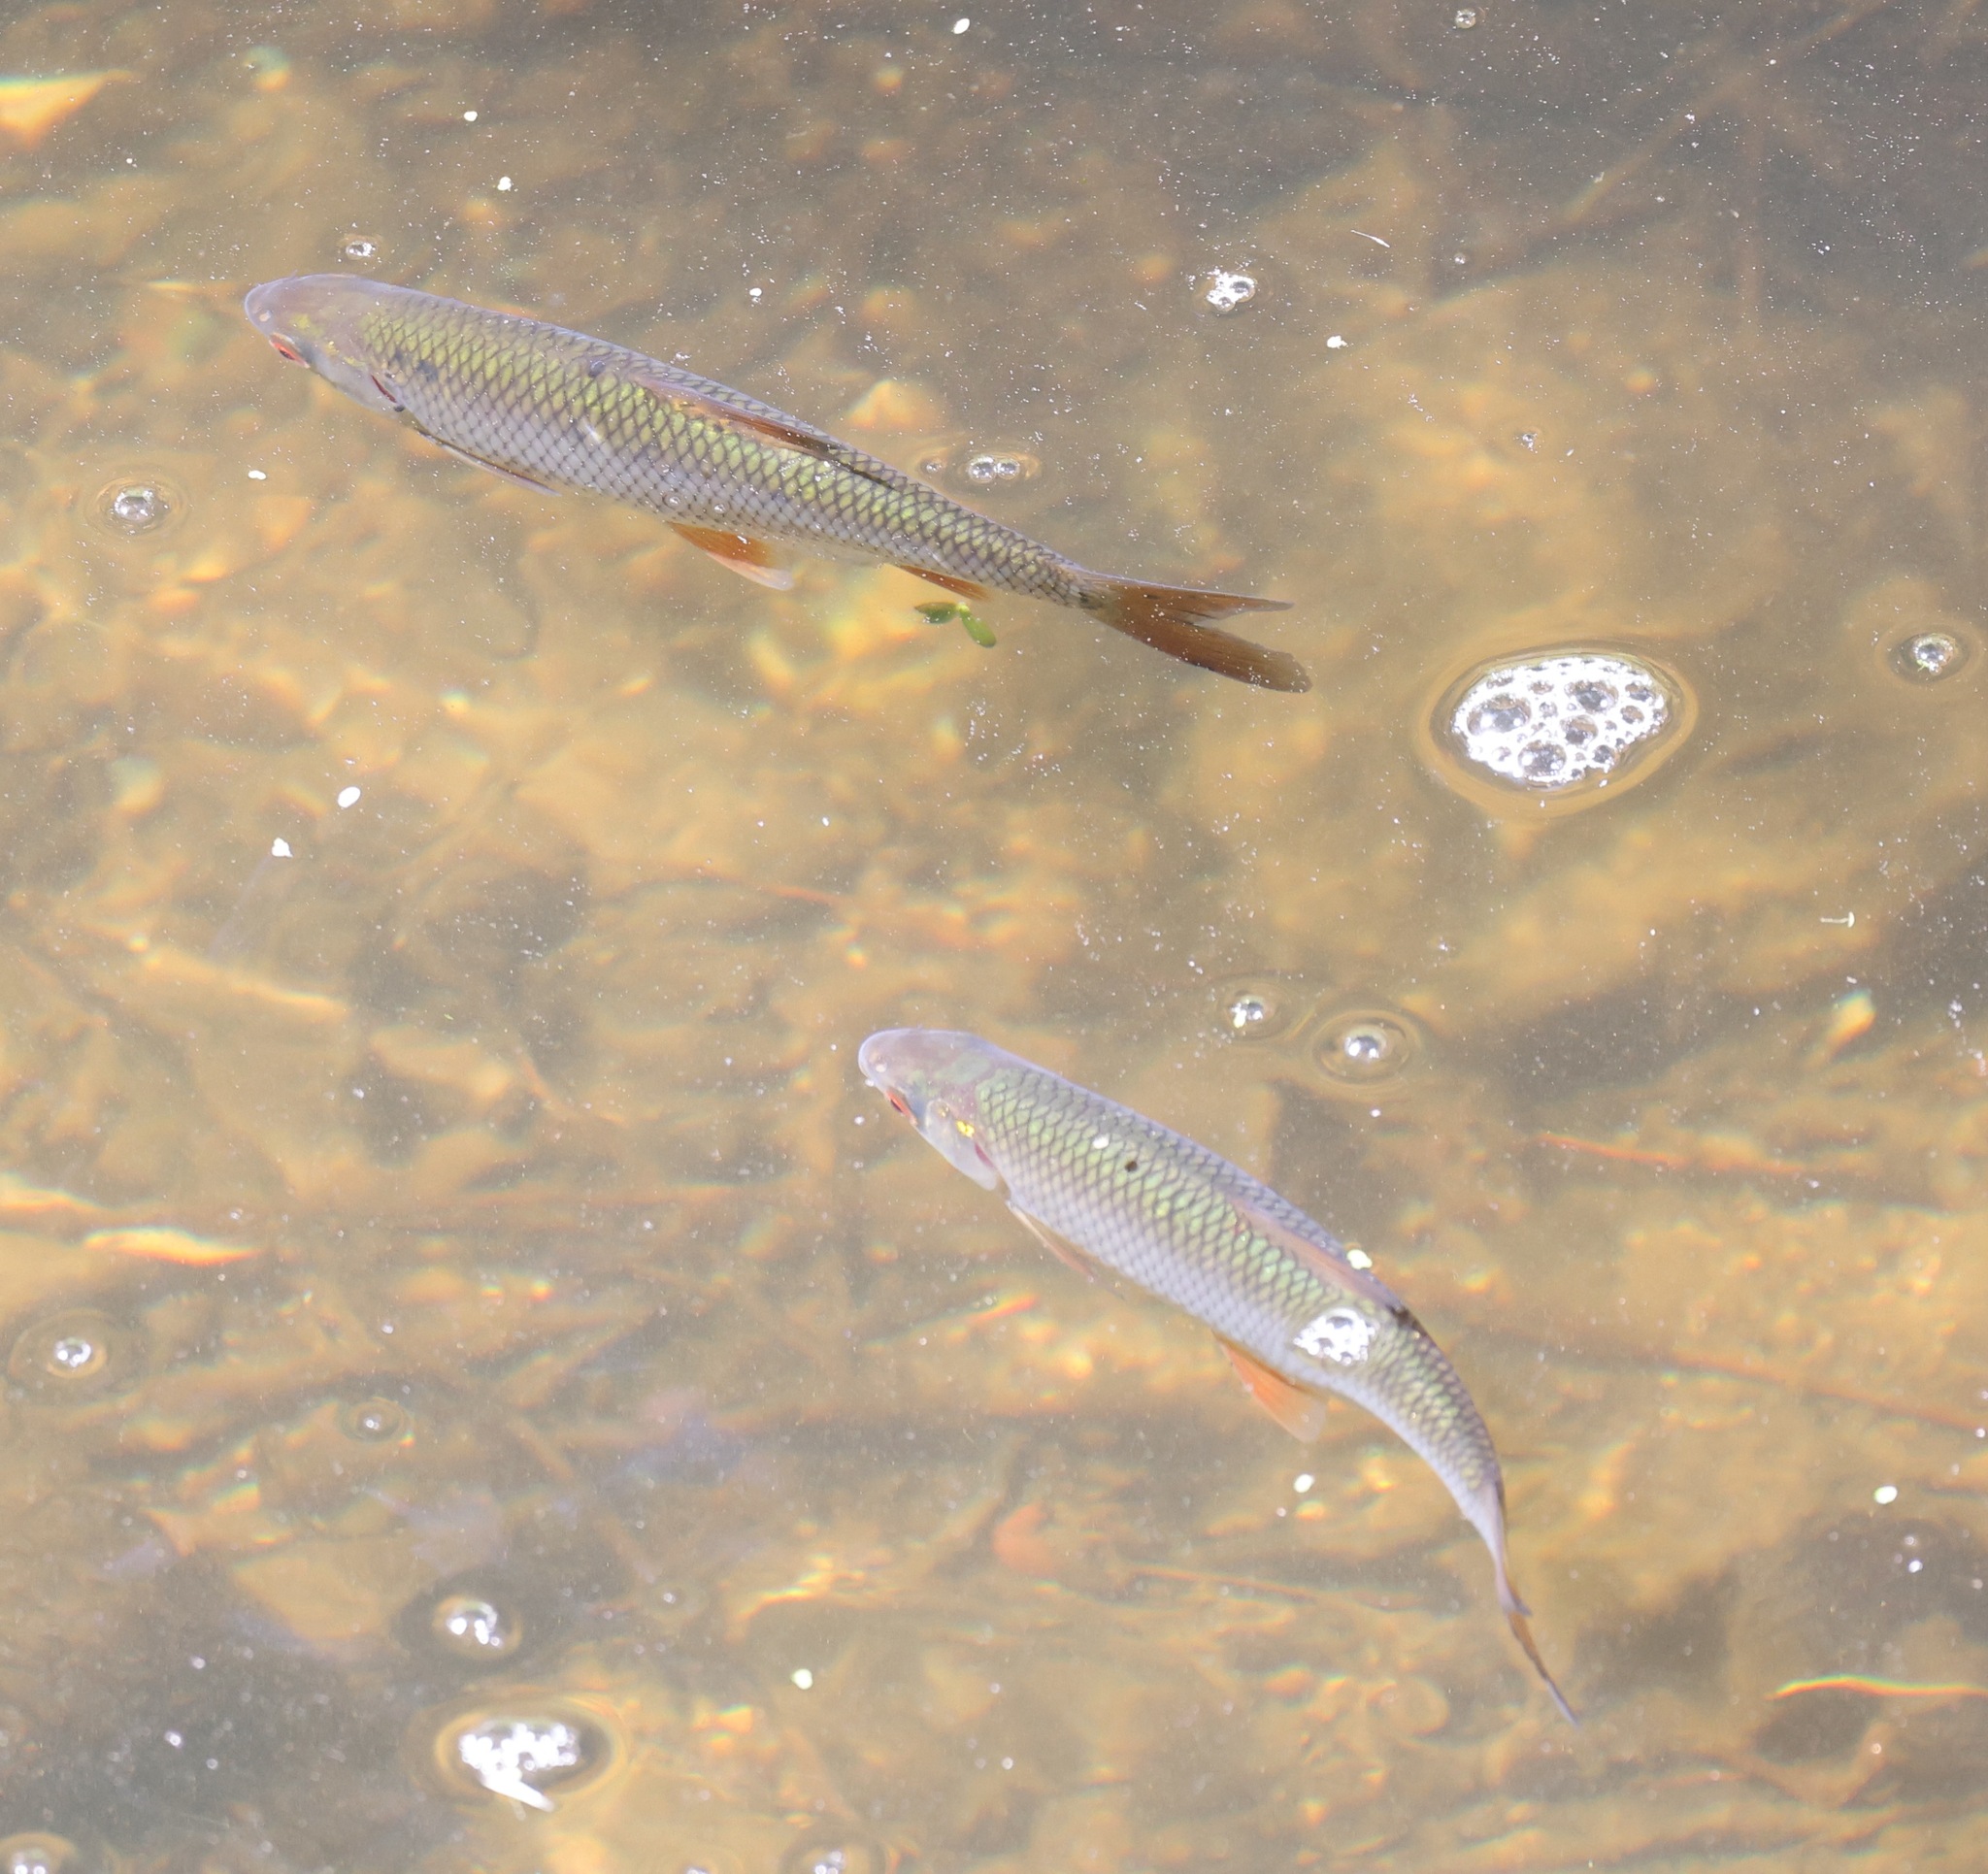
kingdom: Animalia
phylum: Chordata
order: Cypriniformes
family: Cyprinidae
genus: Rutilus
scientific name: Rutilus rutilus
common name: Roach
